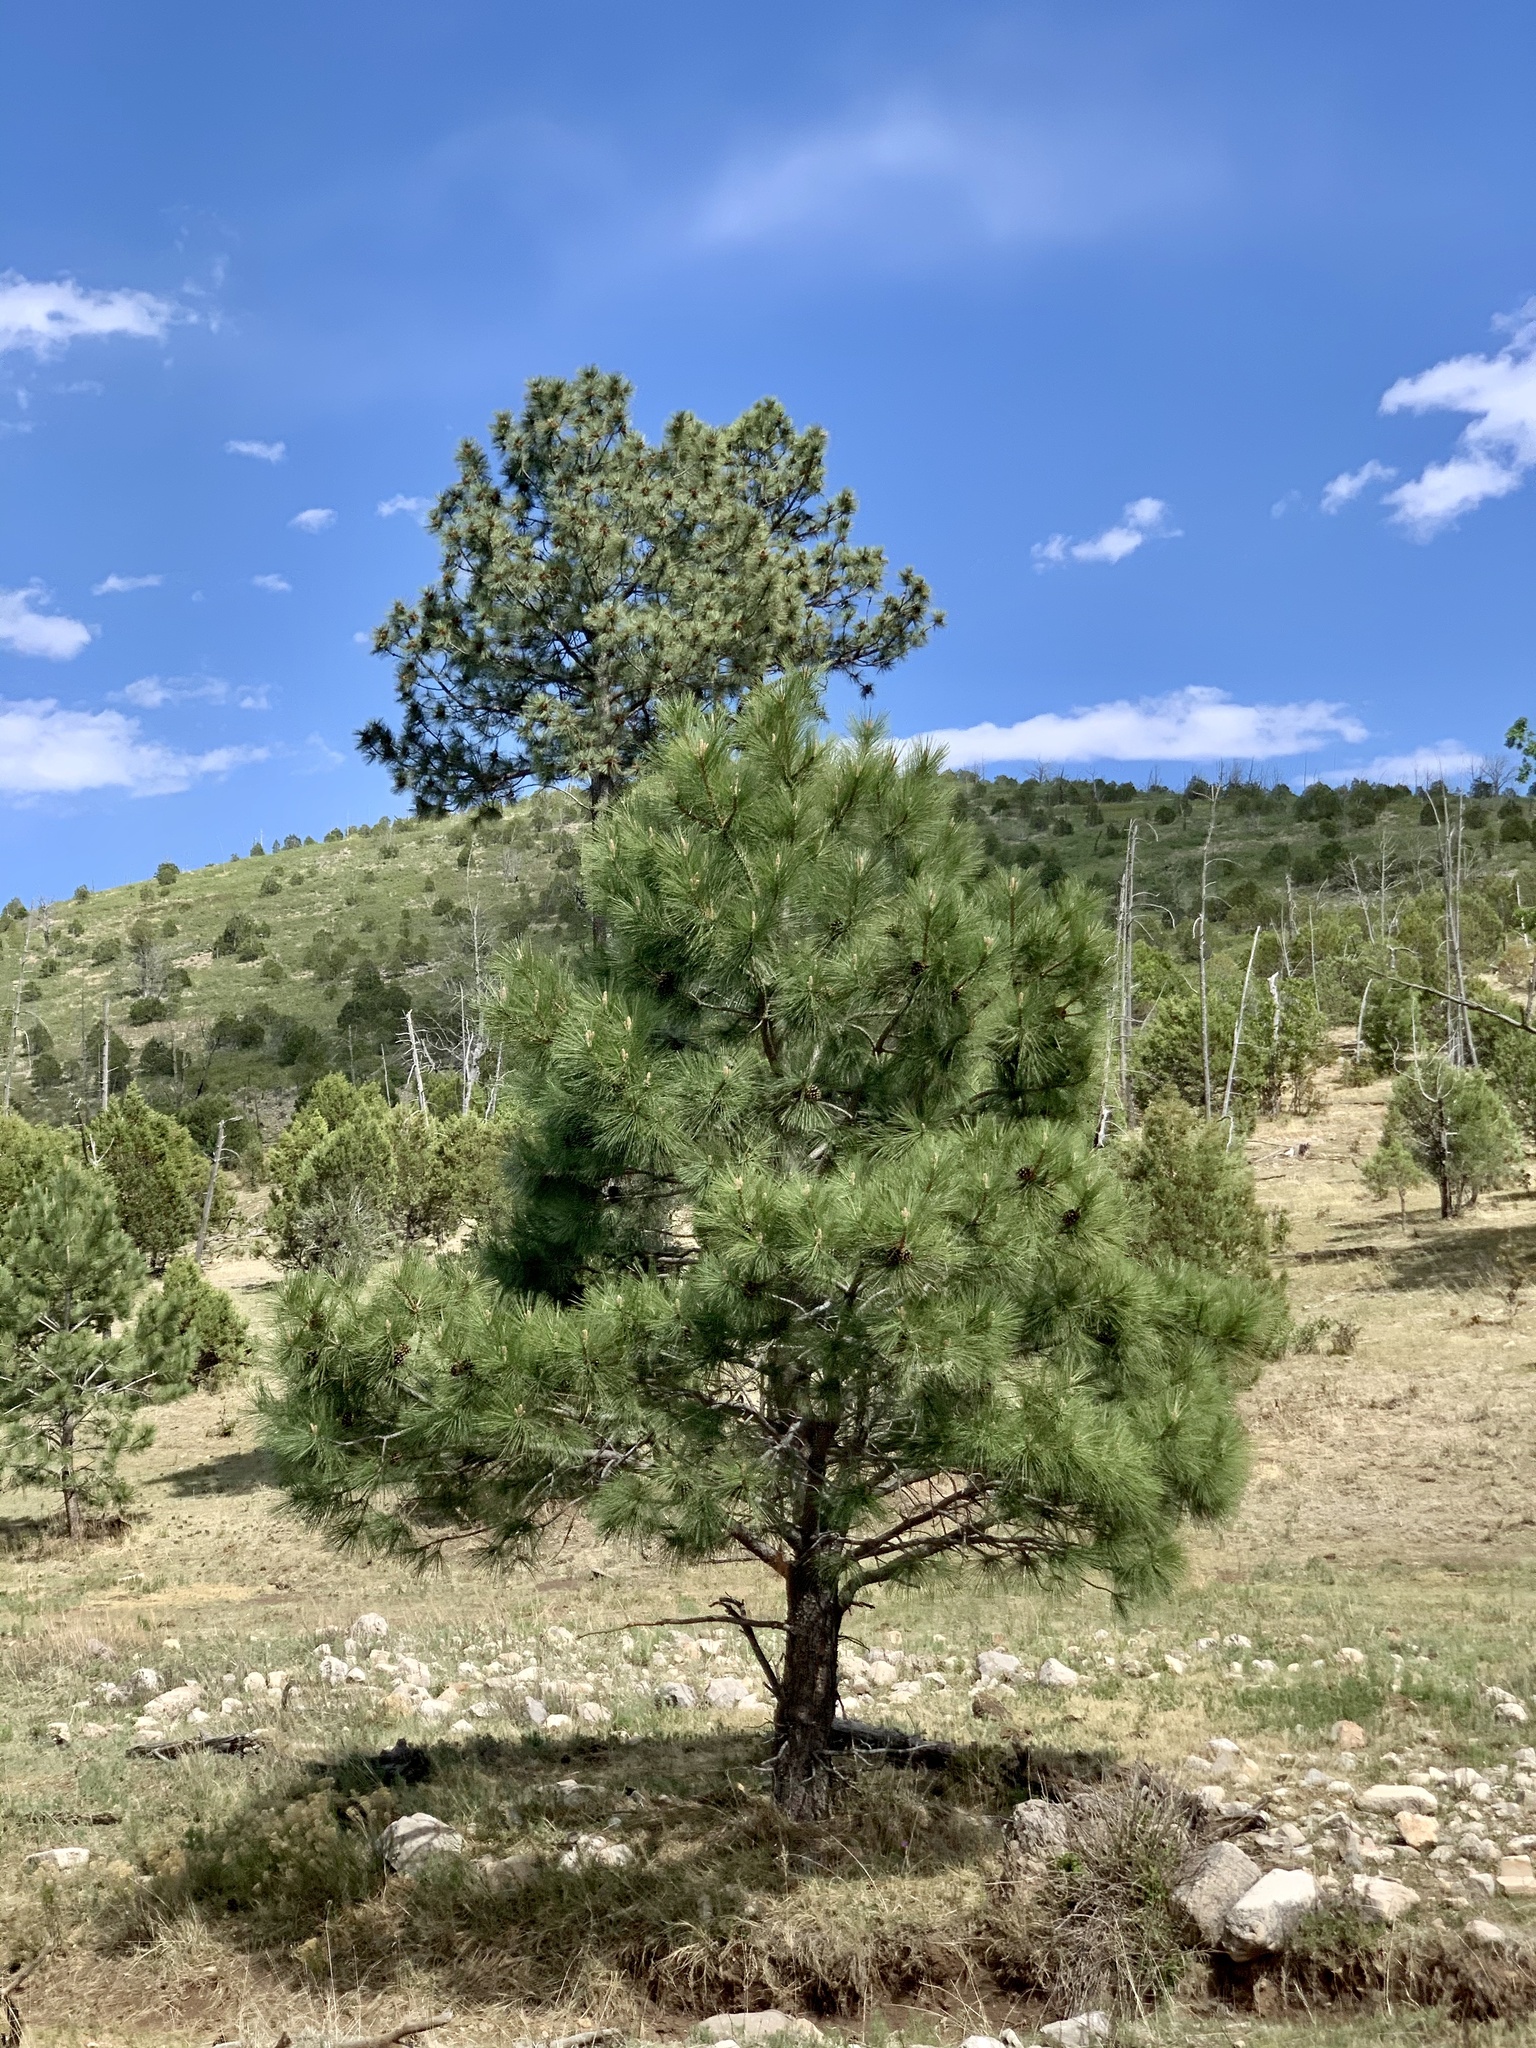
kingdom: Plantae
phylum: Tracheophyta
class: Pinopsida
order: Pinales
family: Pinaceae
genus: Pinus
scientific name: Pinus ponderosa
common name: Western yellow-pine
